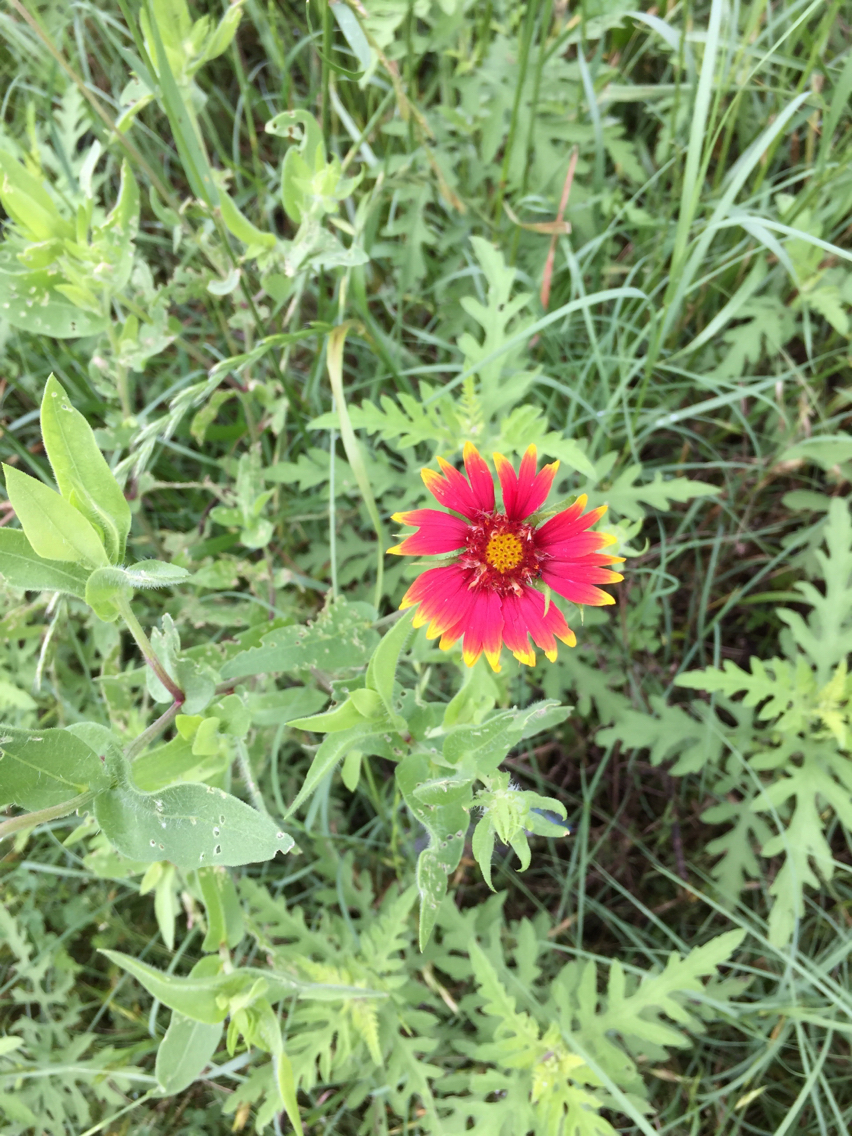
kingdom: Plantae
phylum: Tracheophyta
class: Magnoliopsida
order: Asterales
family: Asteraceae
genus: Gaillardia
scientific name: Gaillardia pulchella
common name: Firewheel
